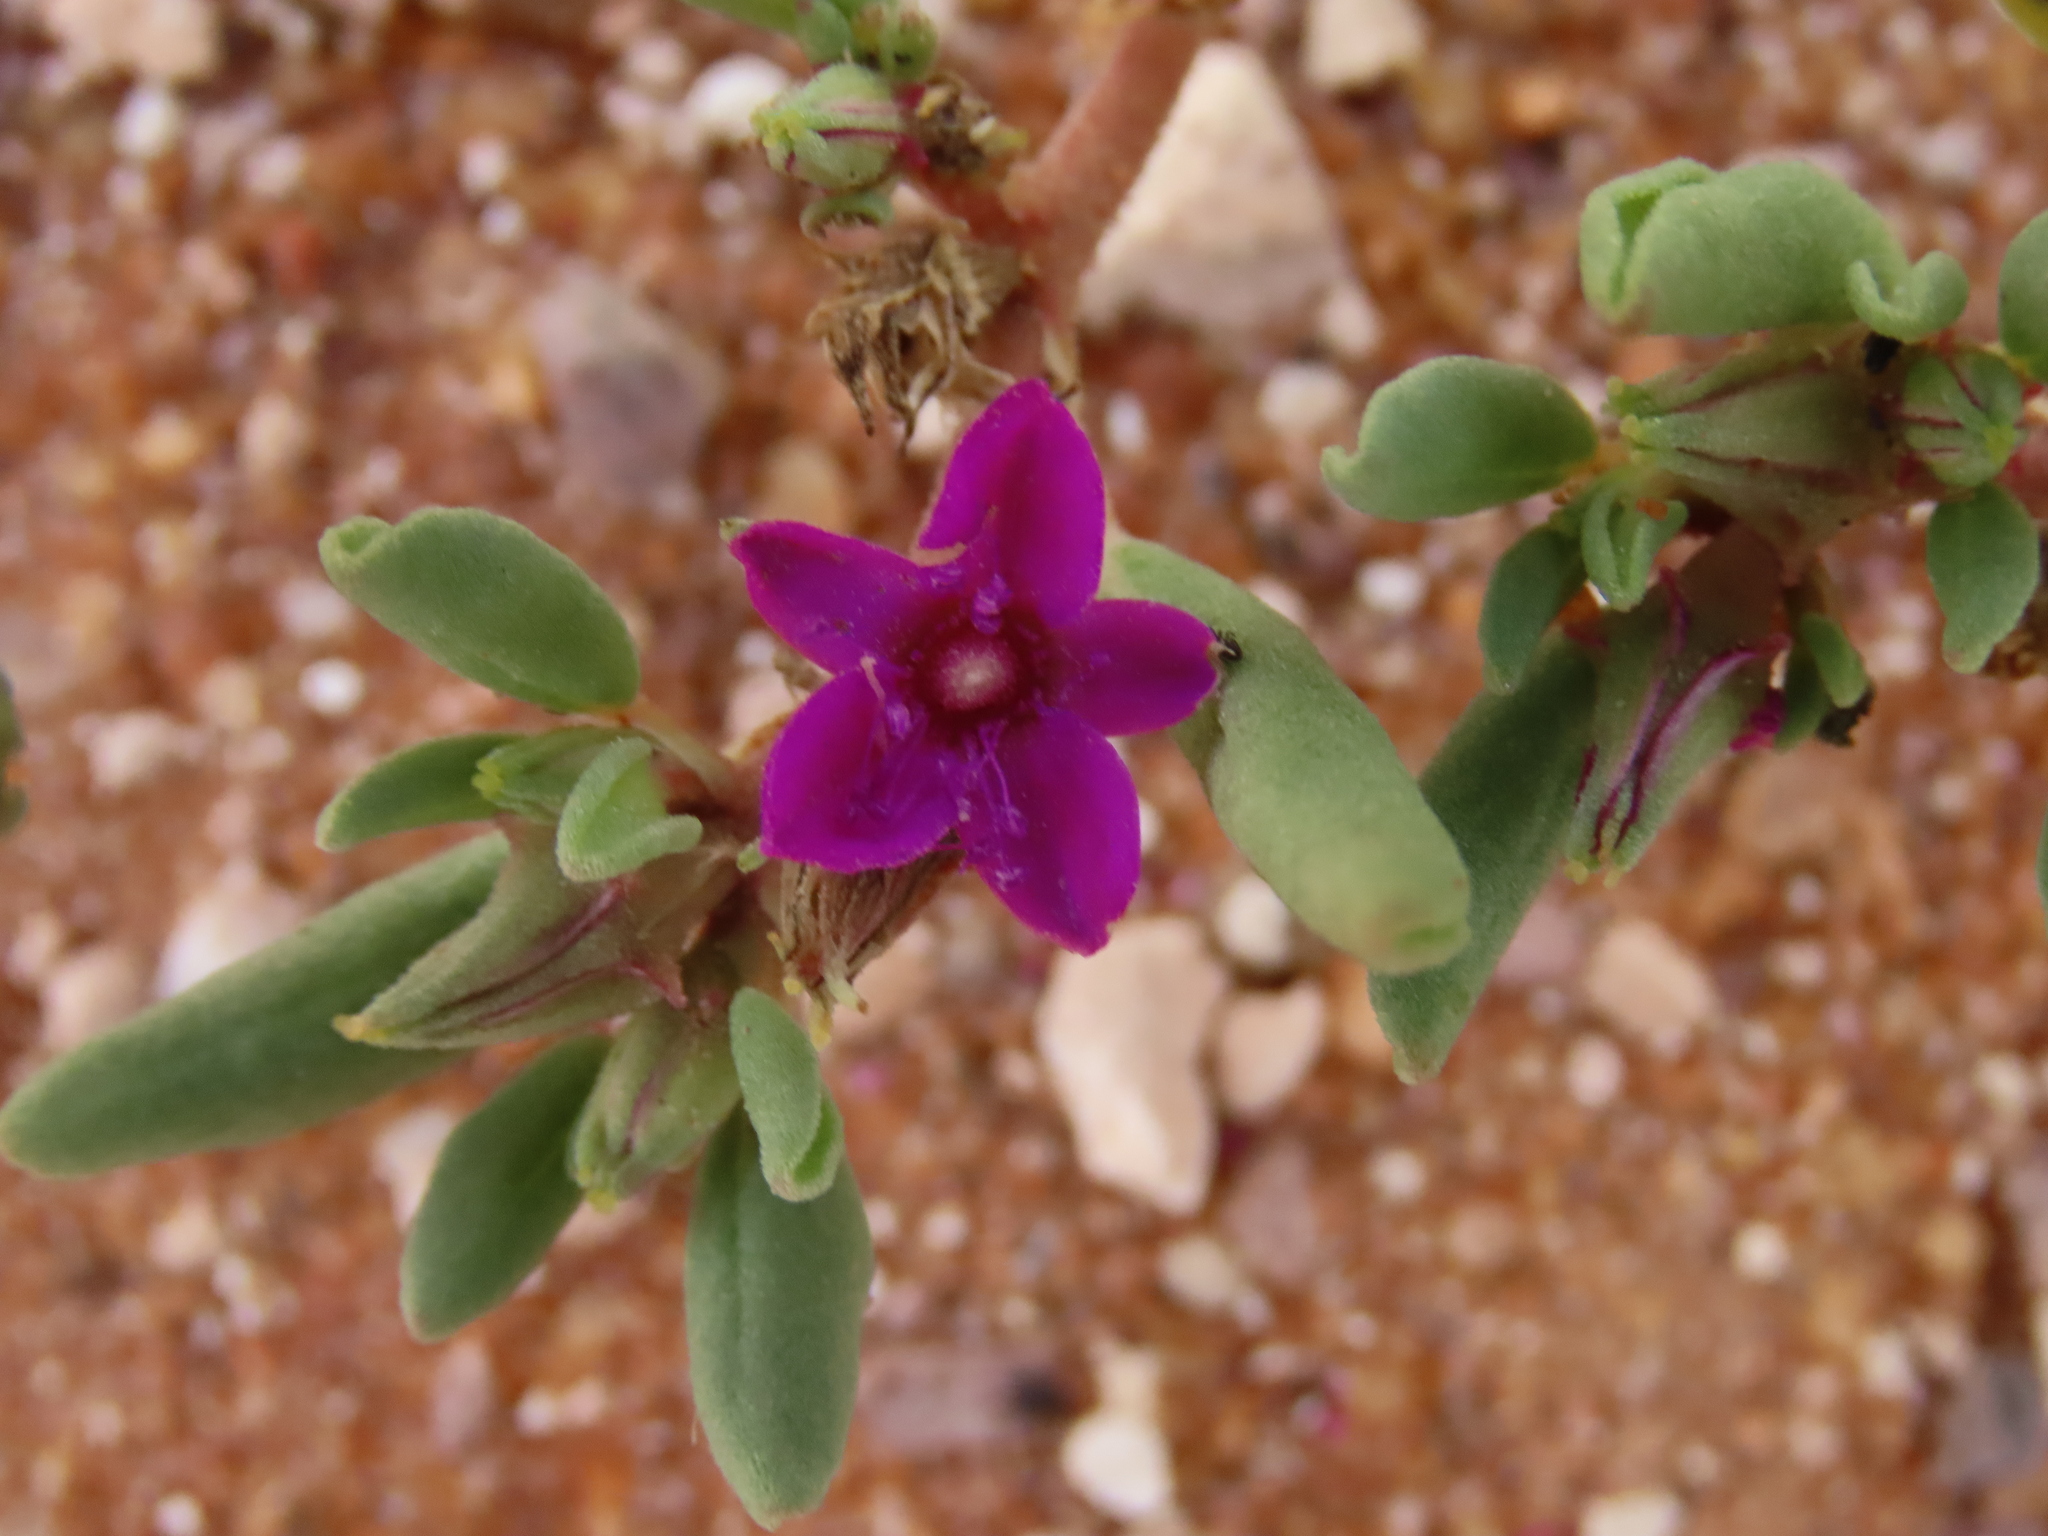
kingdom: Plantae
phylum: Tracheophyta
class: Magnoliopsida
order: Caryophyllales
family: Aizoaceae
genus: Sesuvium
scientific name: Sesuvium sesuvioides
